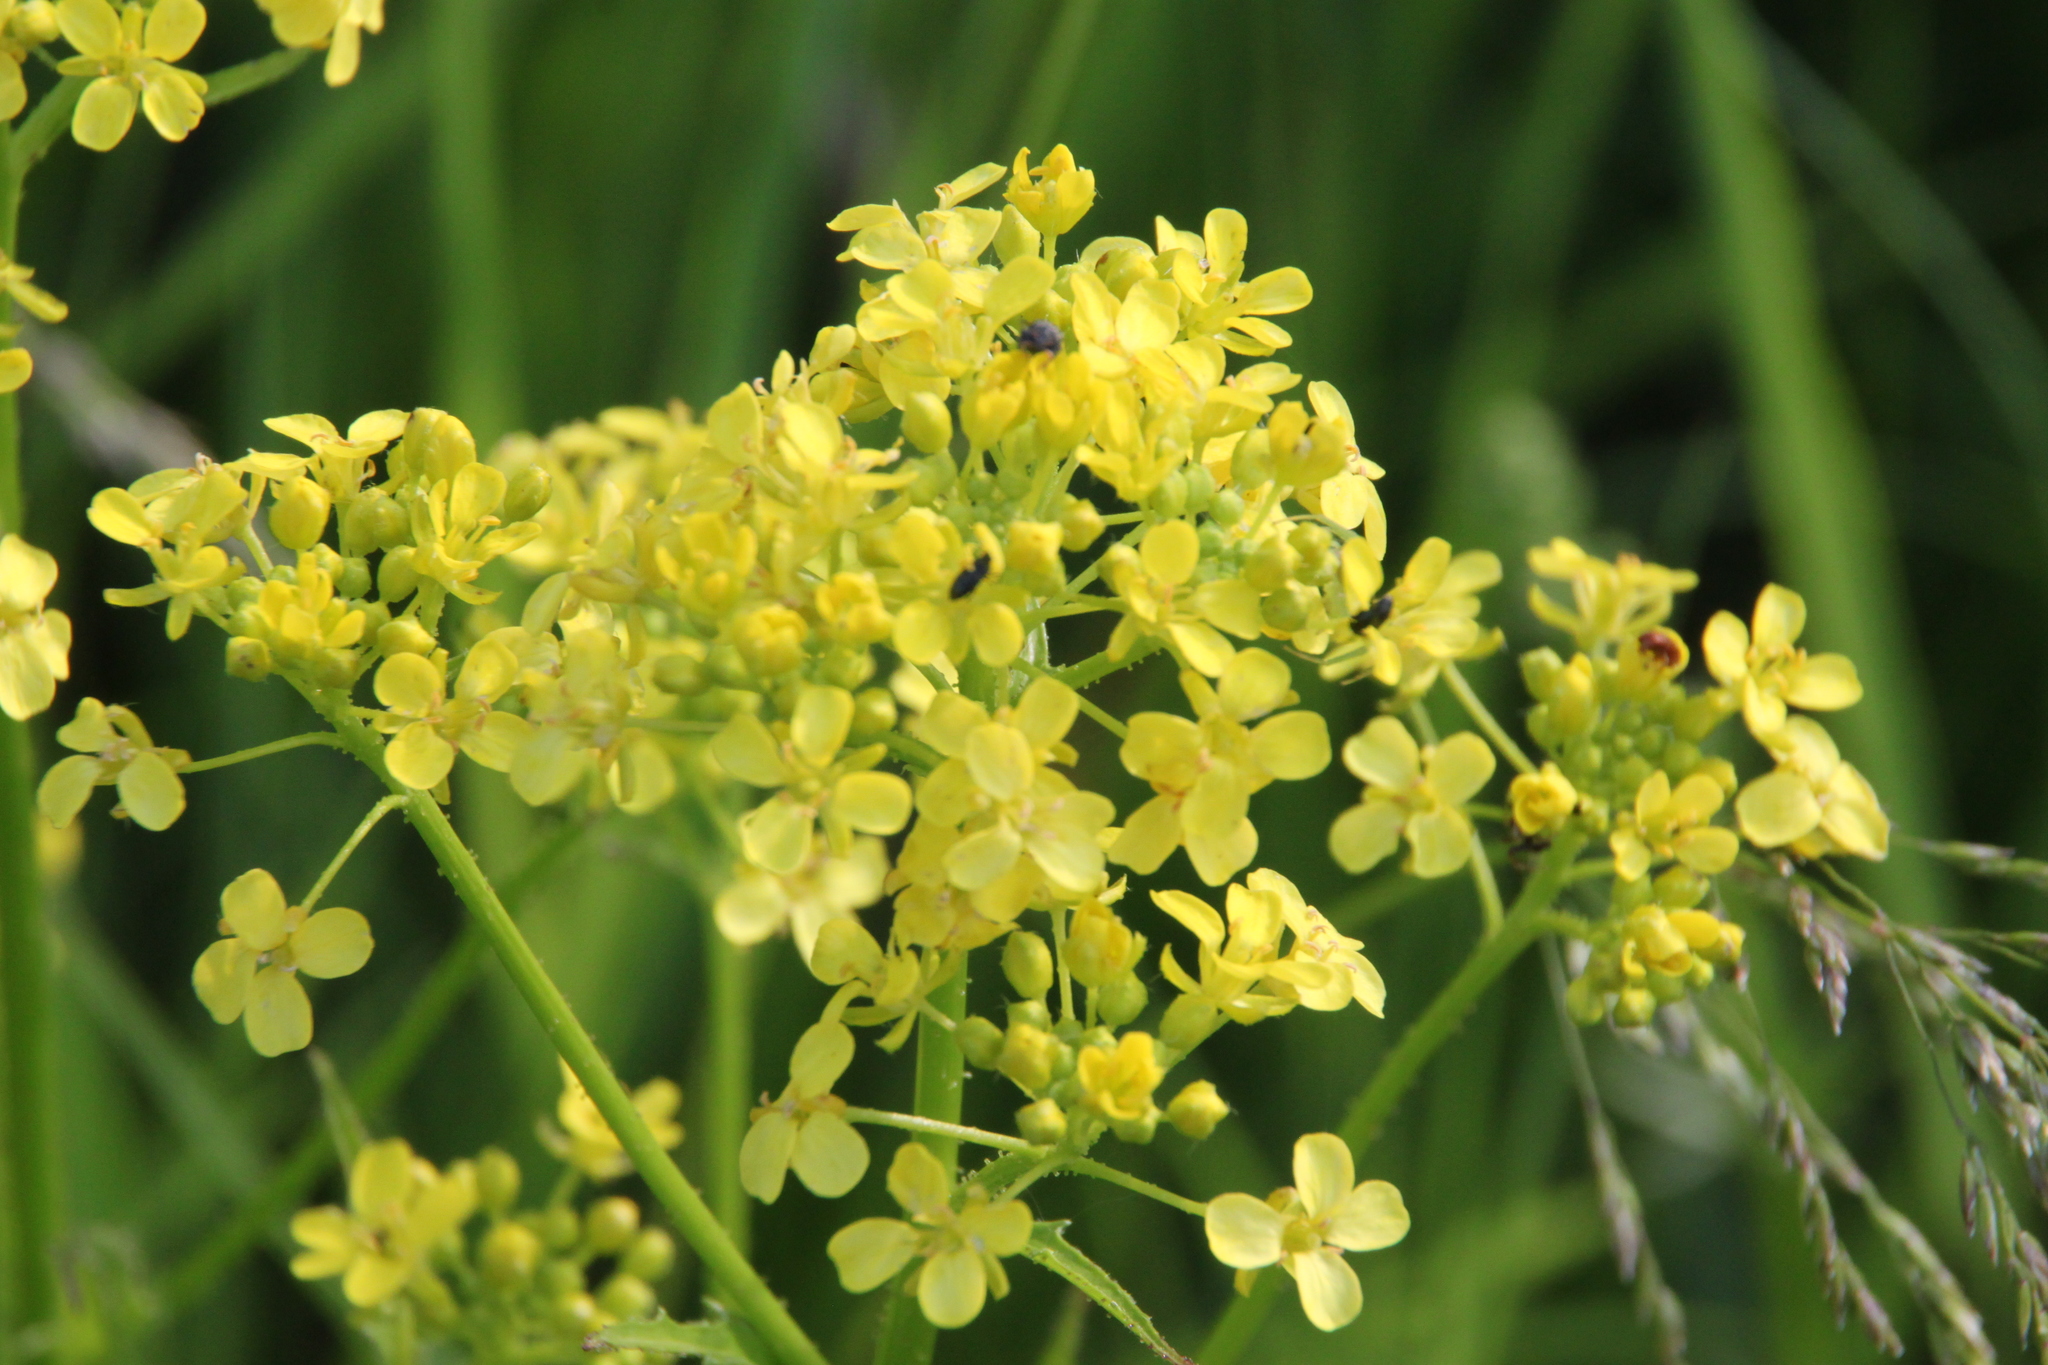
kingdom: Plantae
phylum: Tracheophyta
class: Magnoliopsida
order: Brassicales
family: Brassicaceae
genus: Bunias
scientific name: Bunias orientalis
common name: Warty-cabbage
